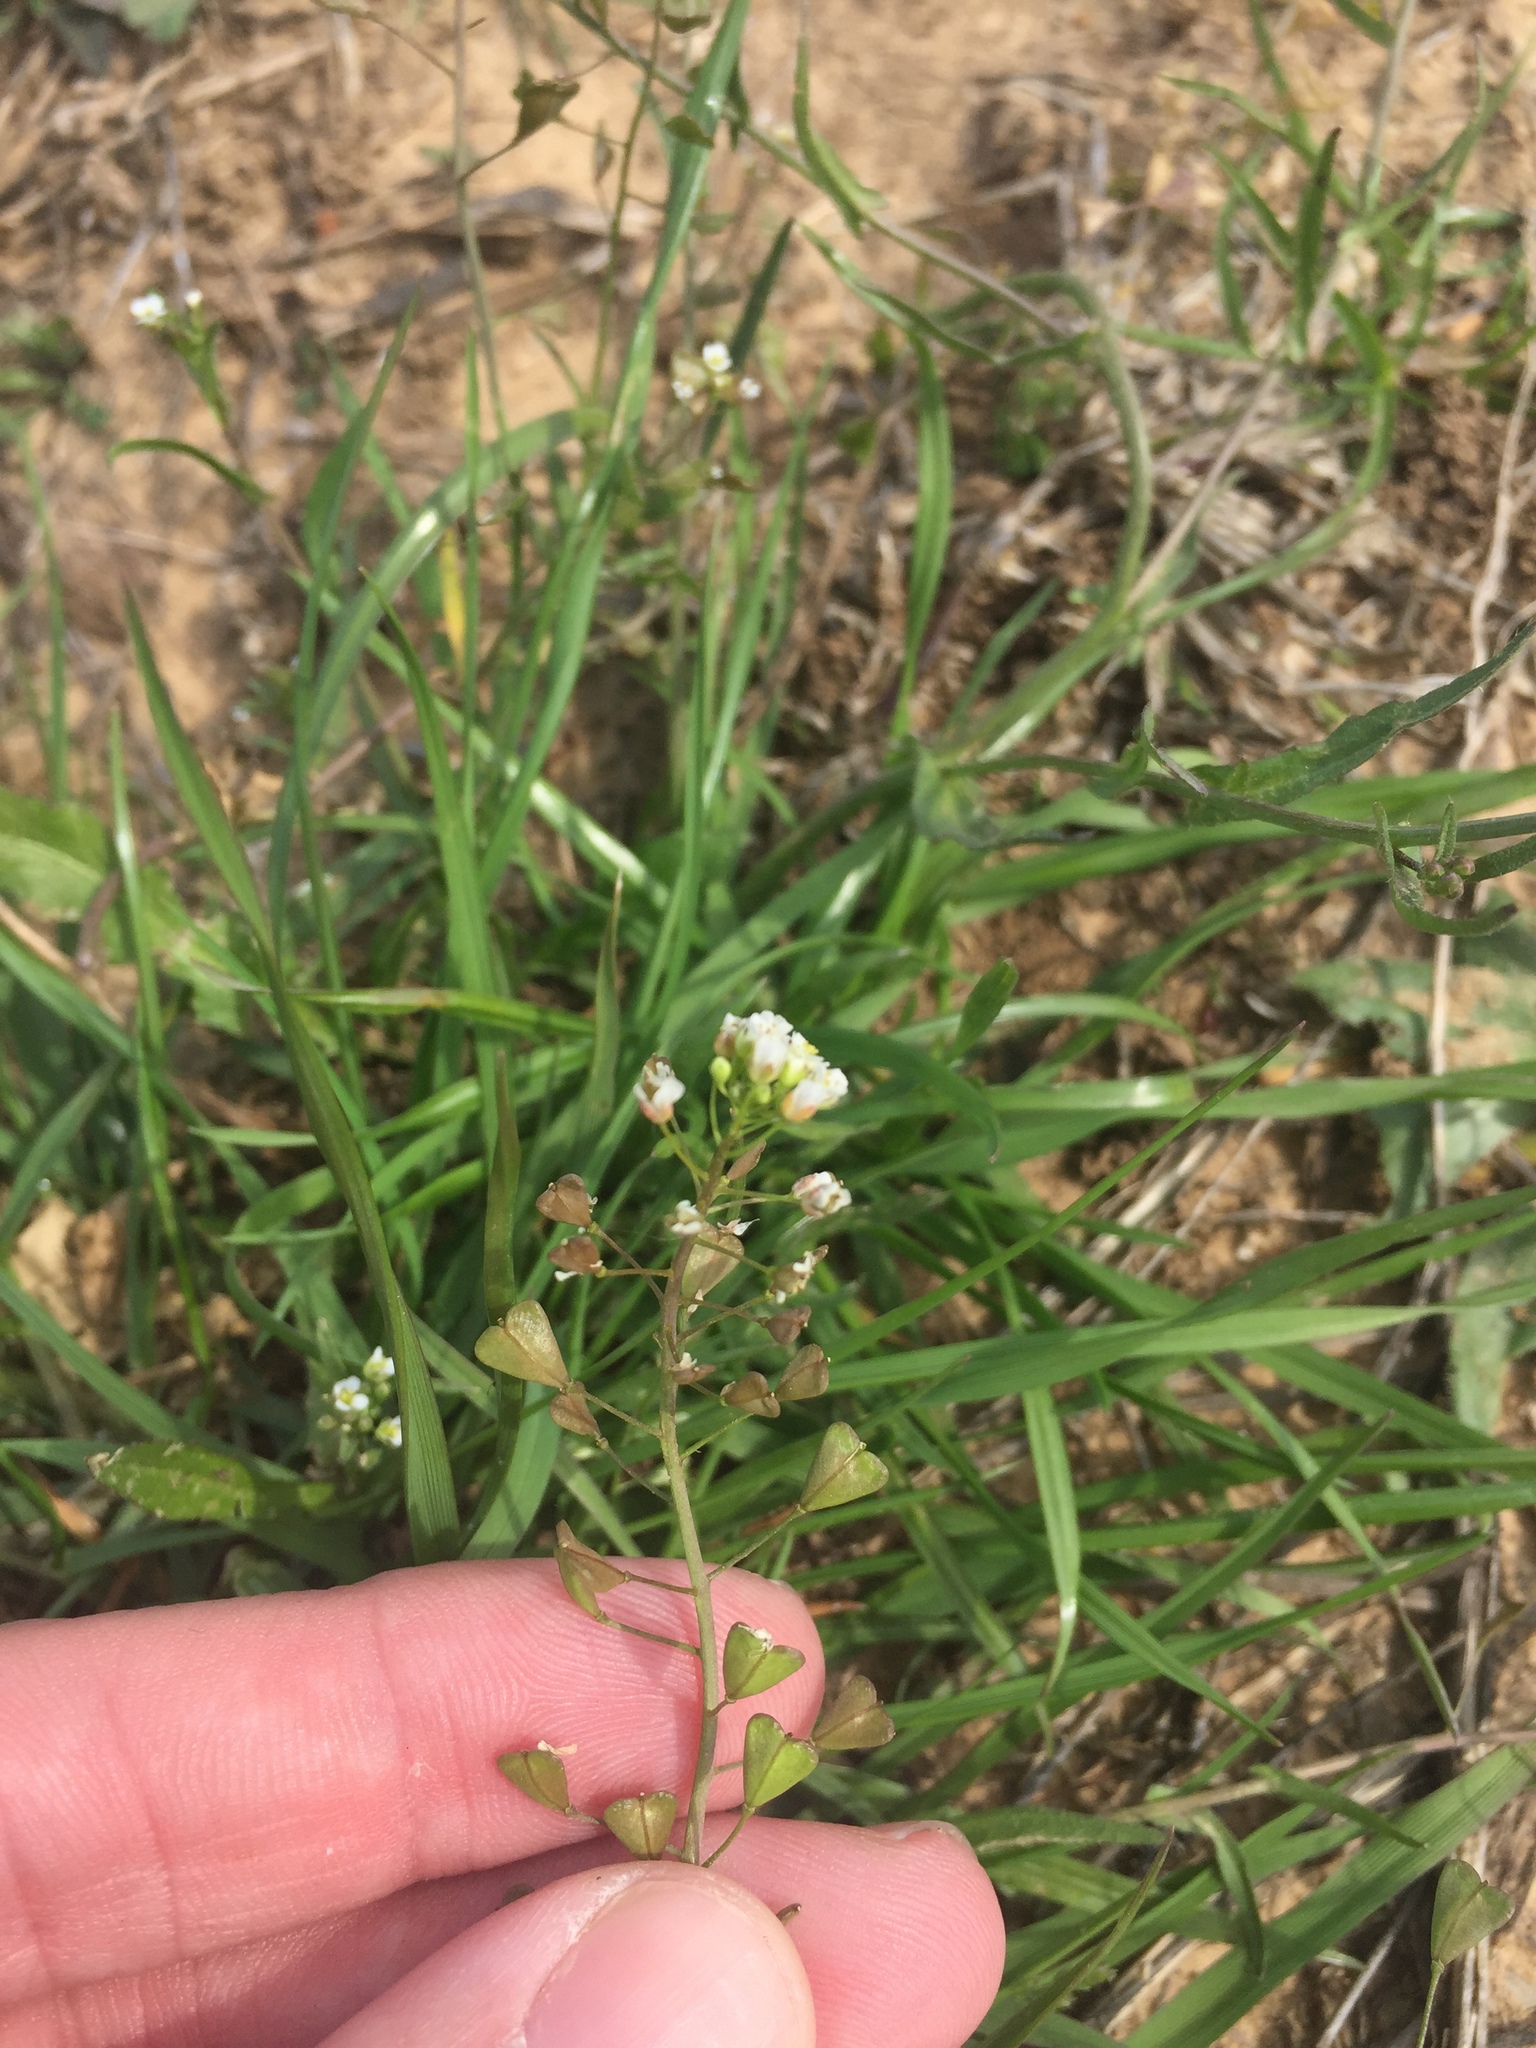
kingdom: Plantae
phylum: Tracheophyta
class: Magnoliopsida
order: Brassicales
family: Brassicaceae
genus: Capsella
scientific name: Capsella bursa-pastoris
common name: Shepherd's purse
